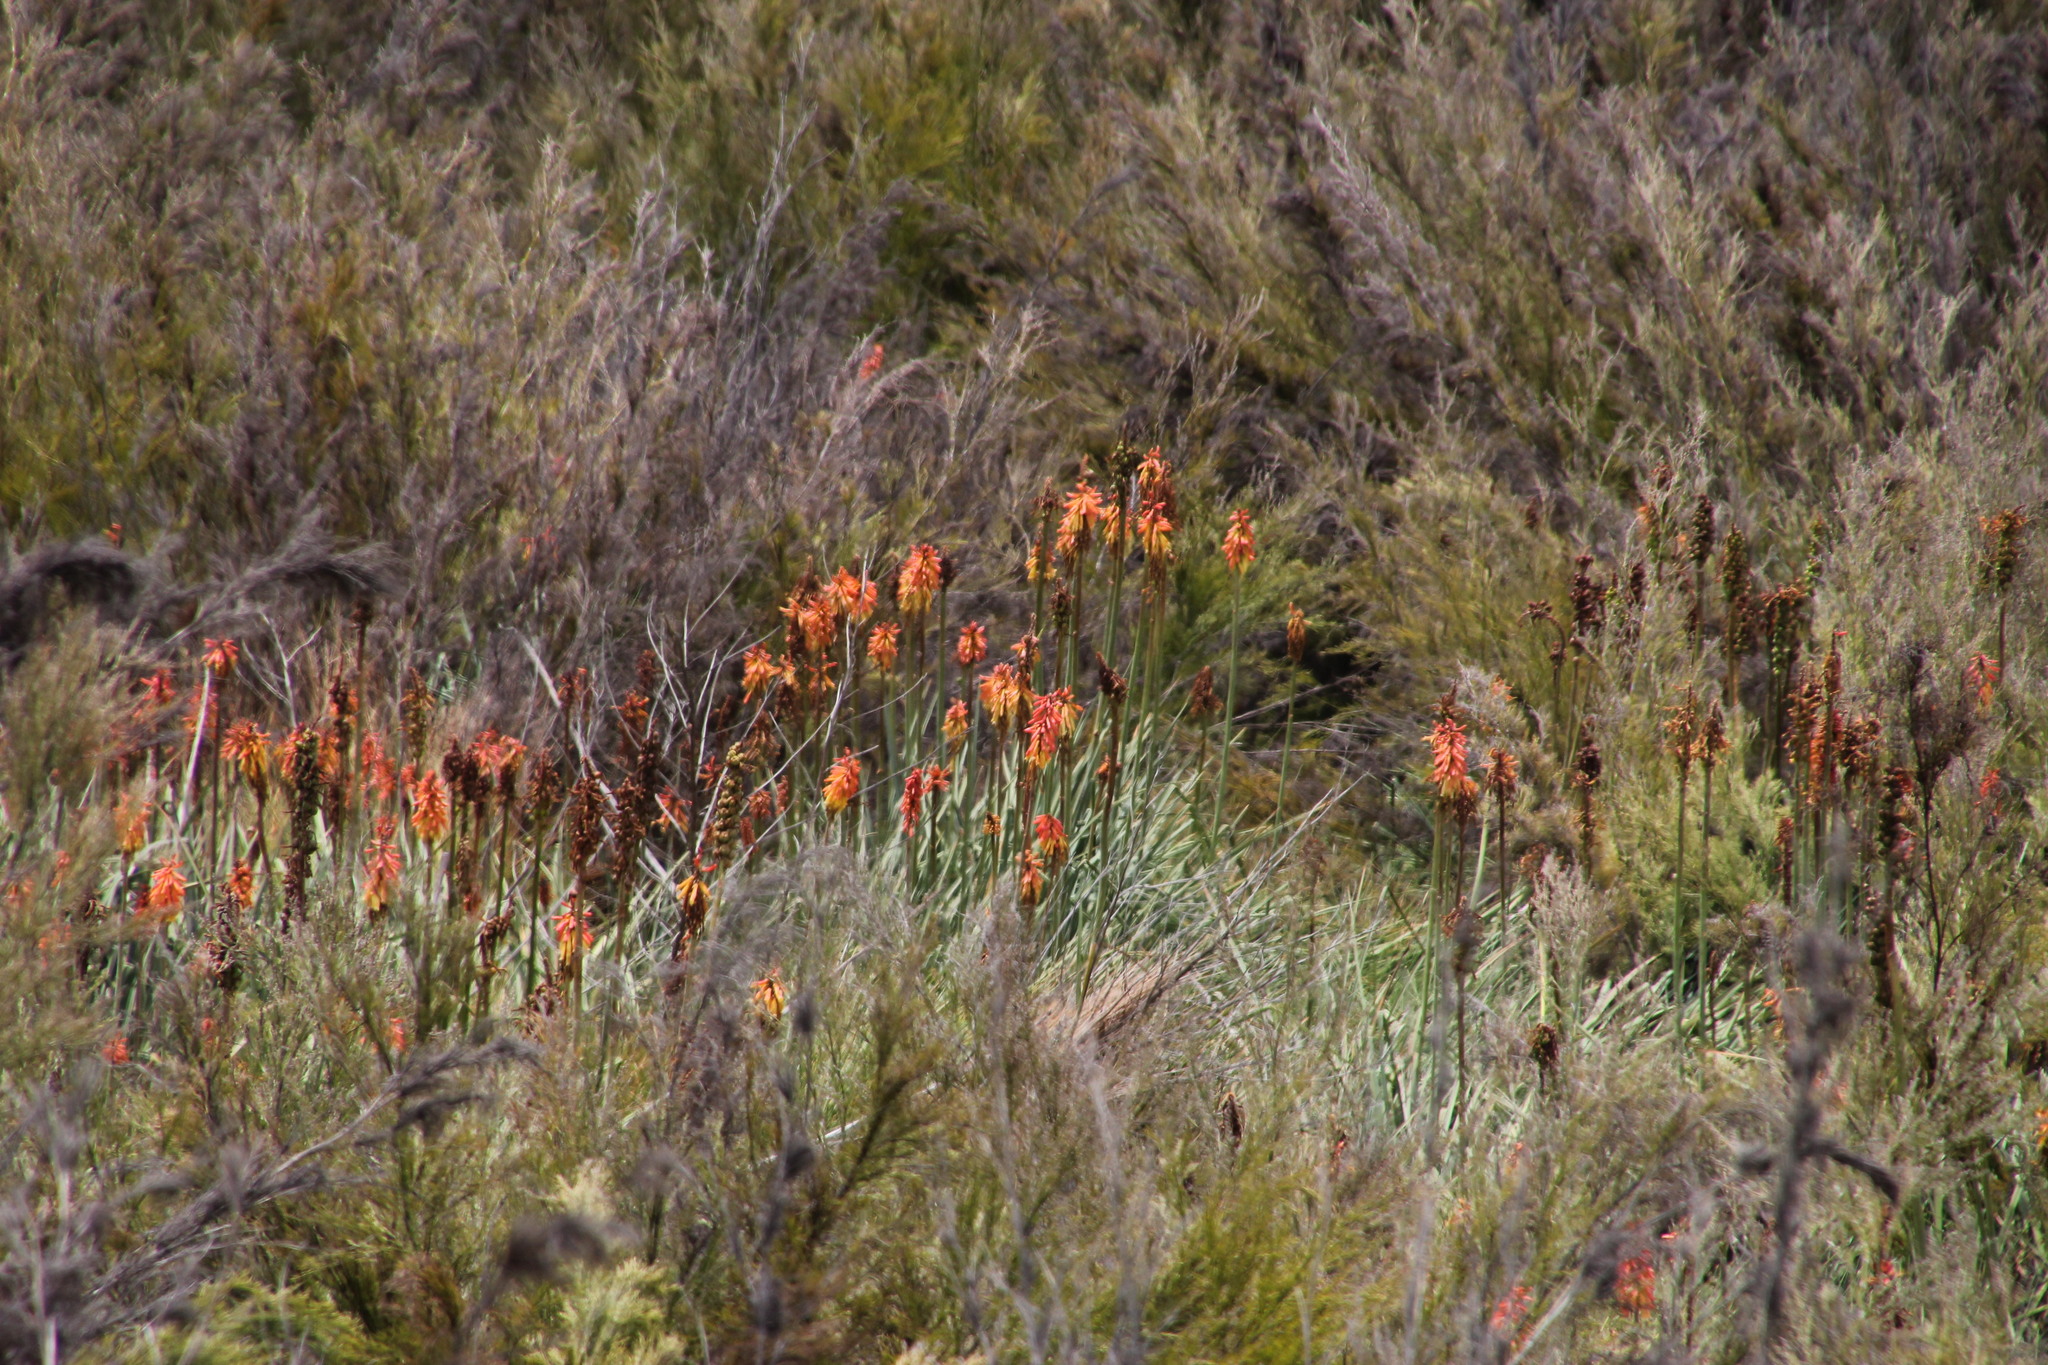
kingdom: Plantae
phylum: Tracheophyta
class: Liliopsida
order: Asparagales
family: Asphodelaceae
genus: Kniphofia
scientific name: Kniphofia uvaria
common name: Red-hot-poker
